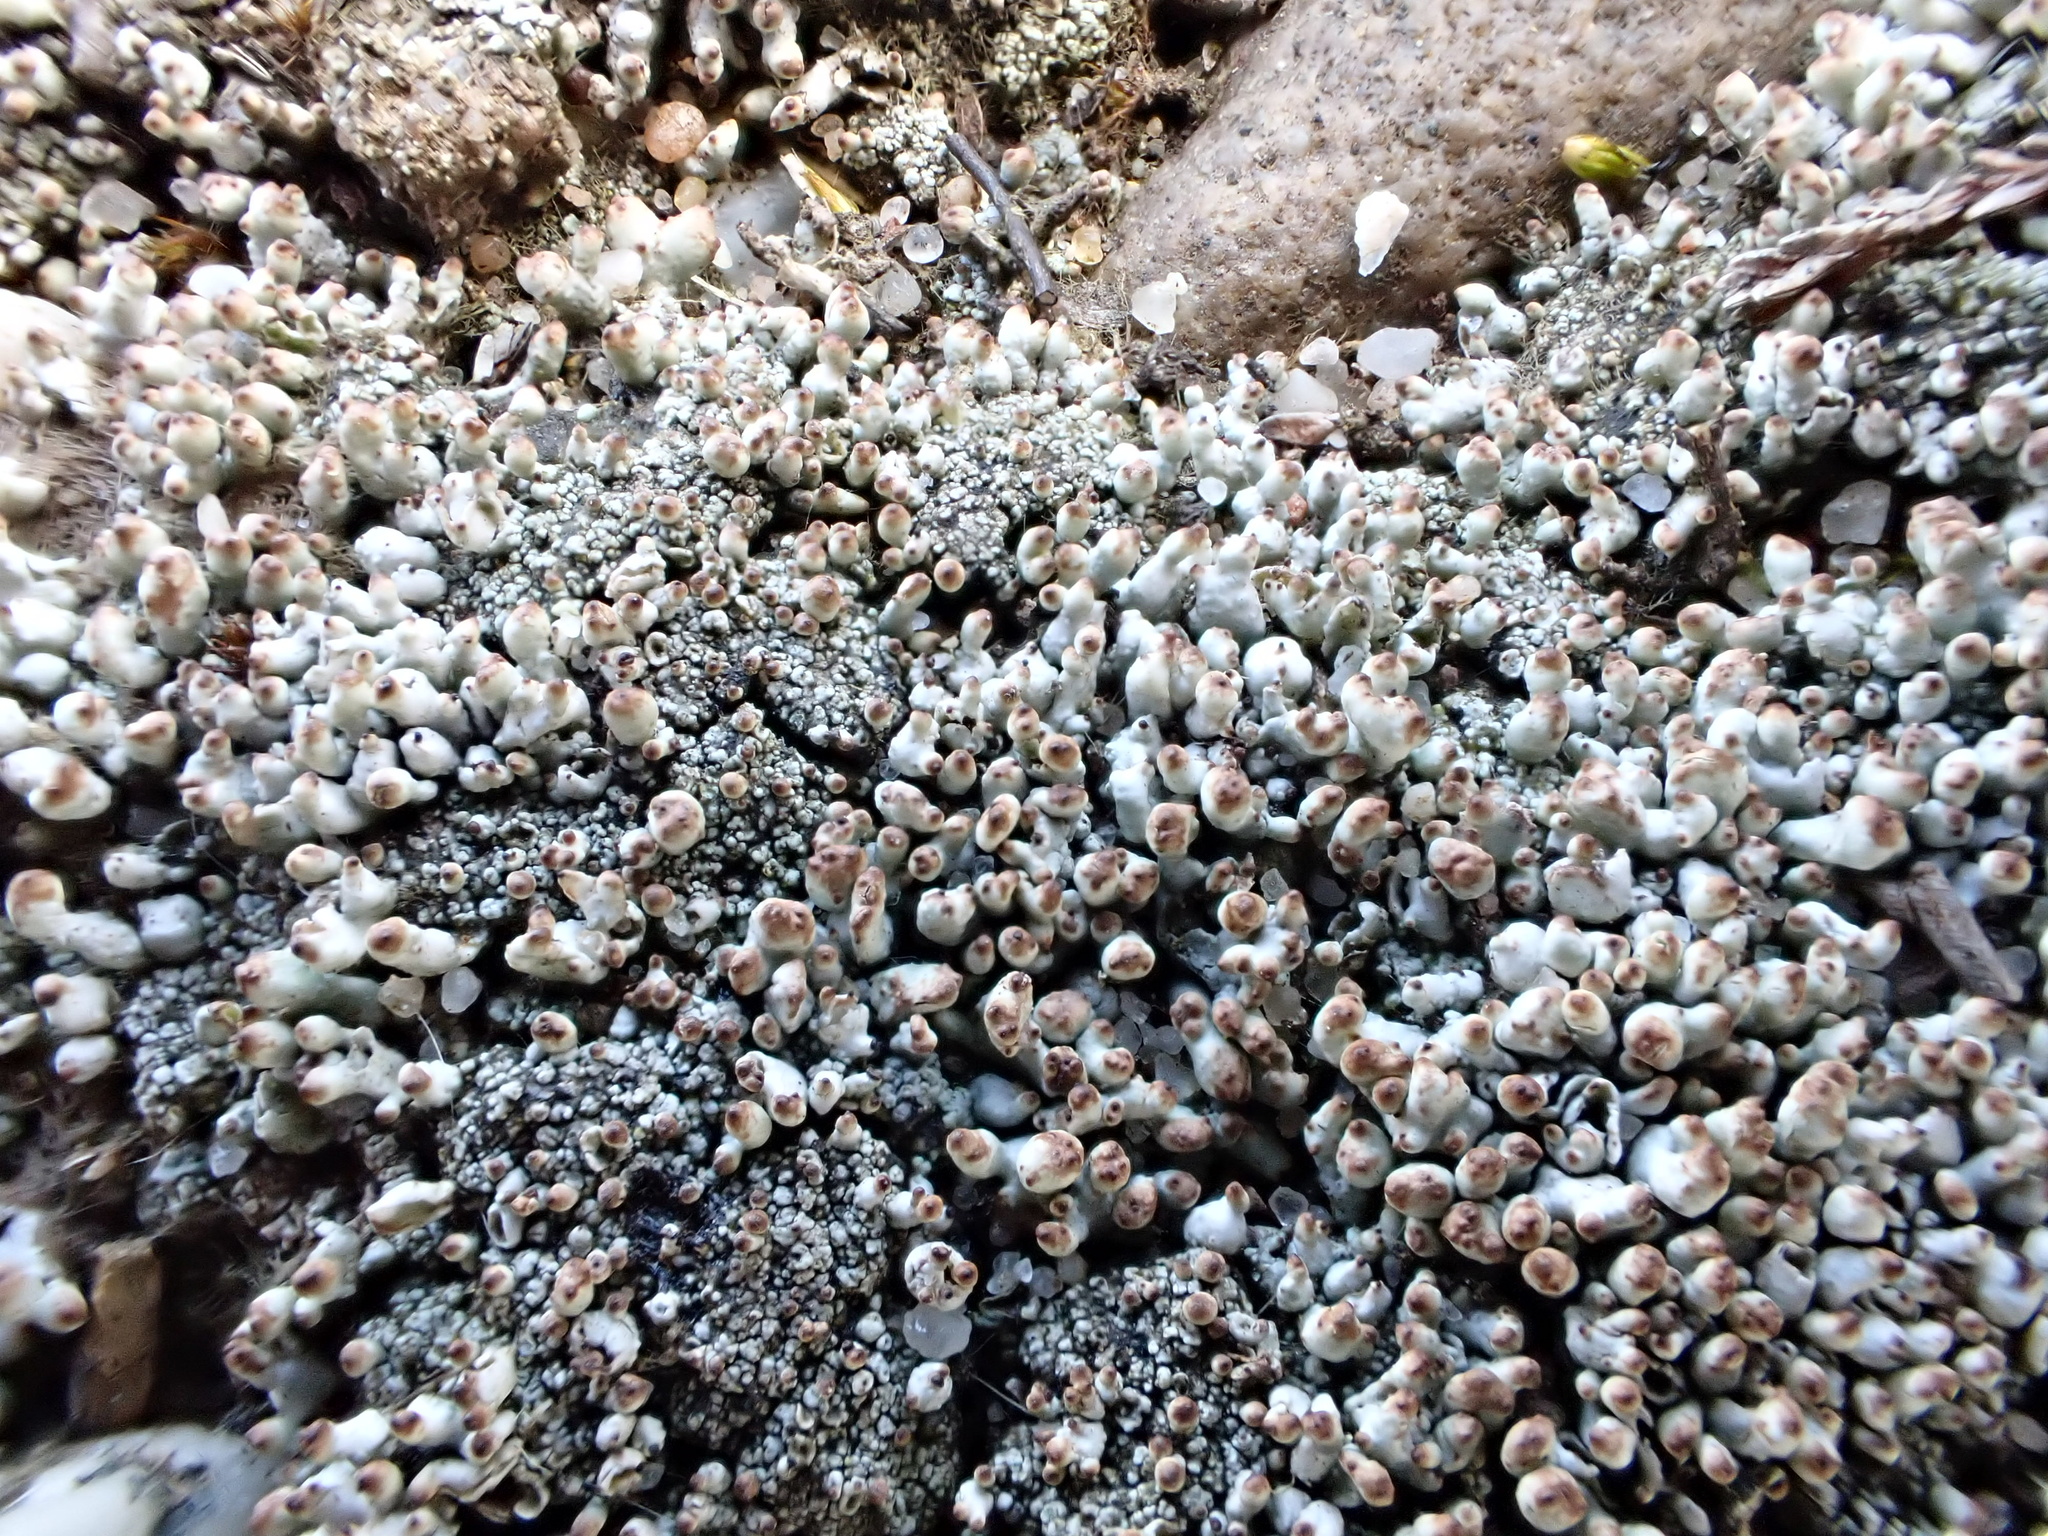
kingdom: Fungi
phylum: Ascomycota
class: Lecanoromycetes
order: Lecanorales
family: Cladoniaceae
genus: Pycnothelia
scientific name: Pycnothelia papillaria
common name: Nipple lichen
